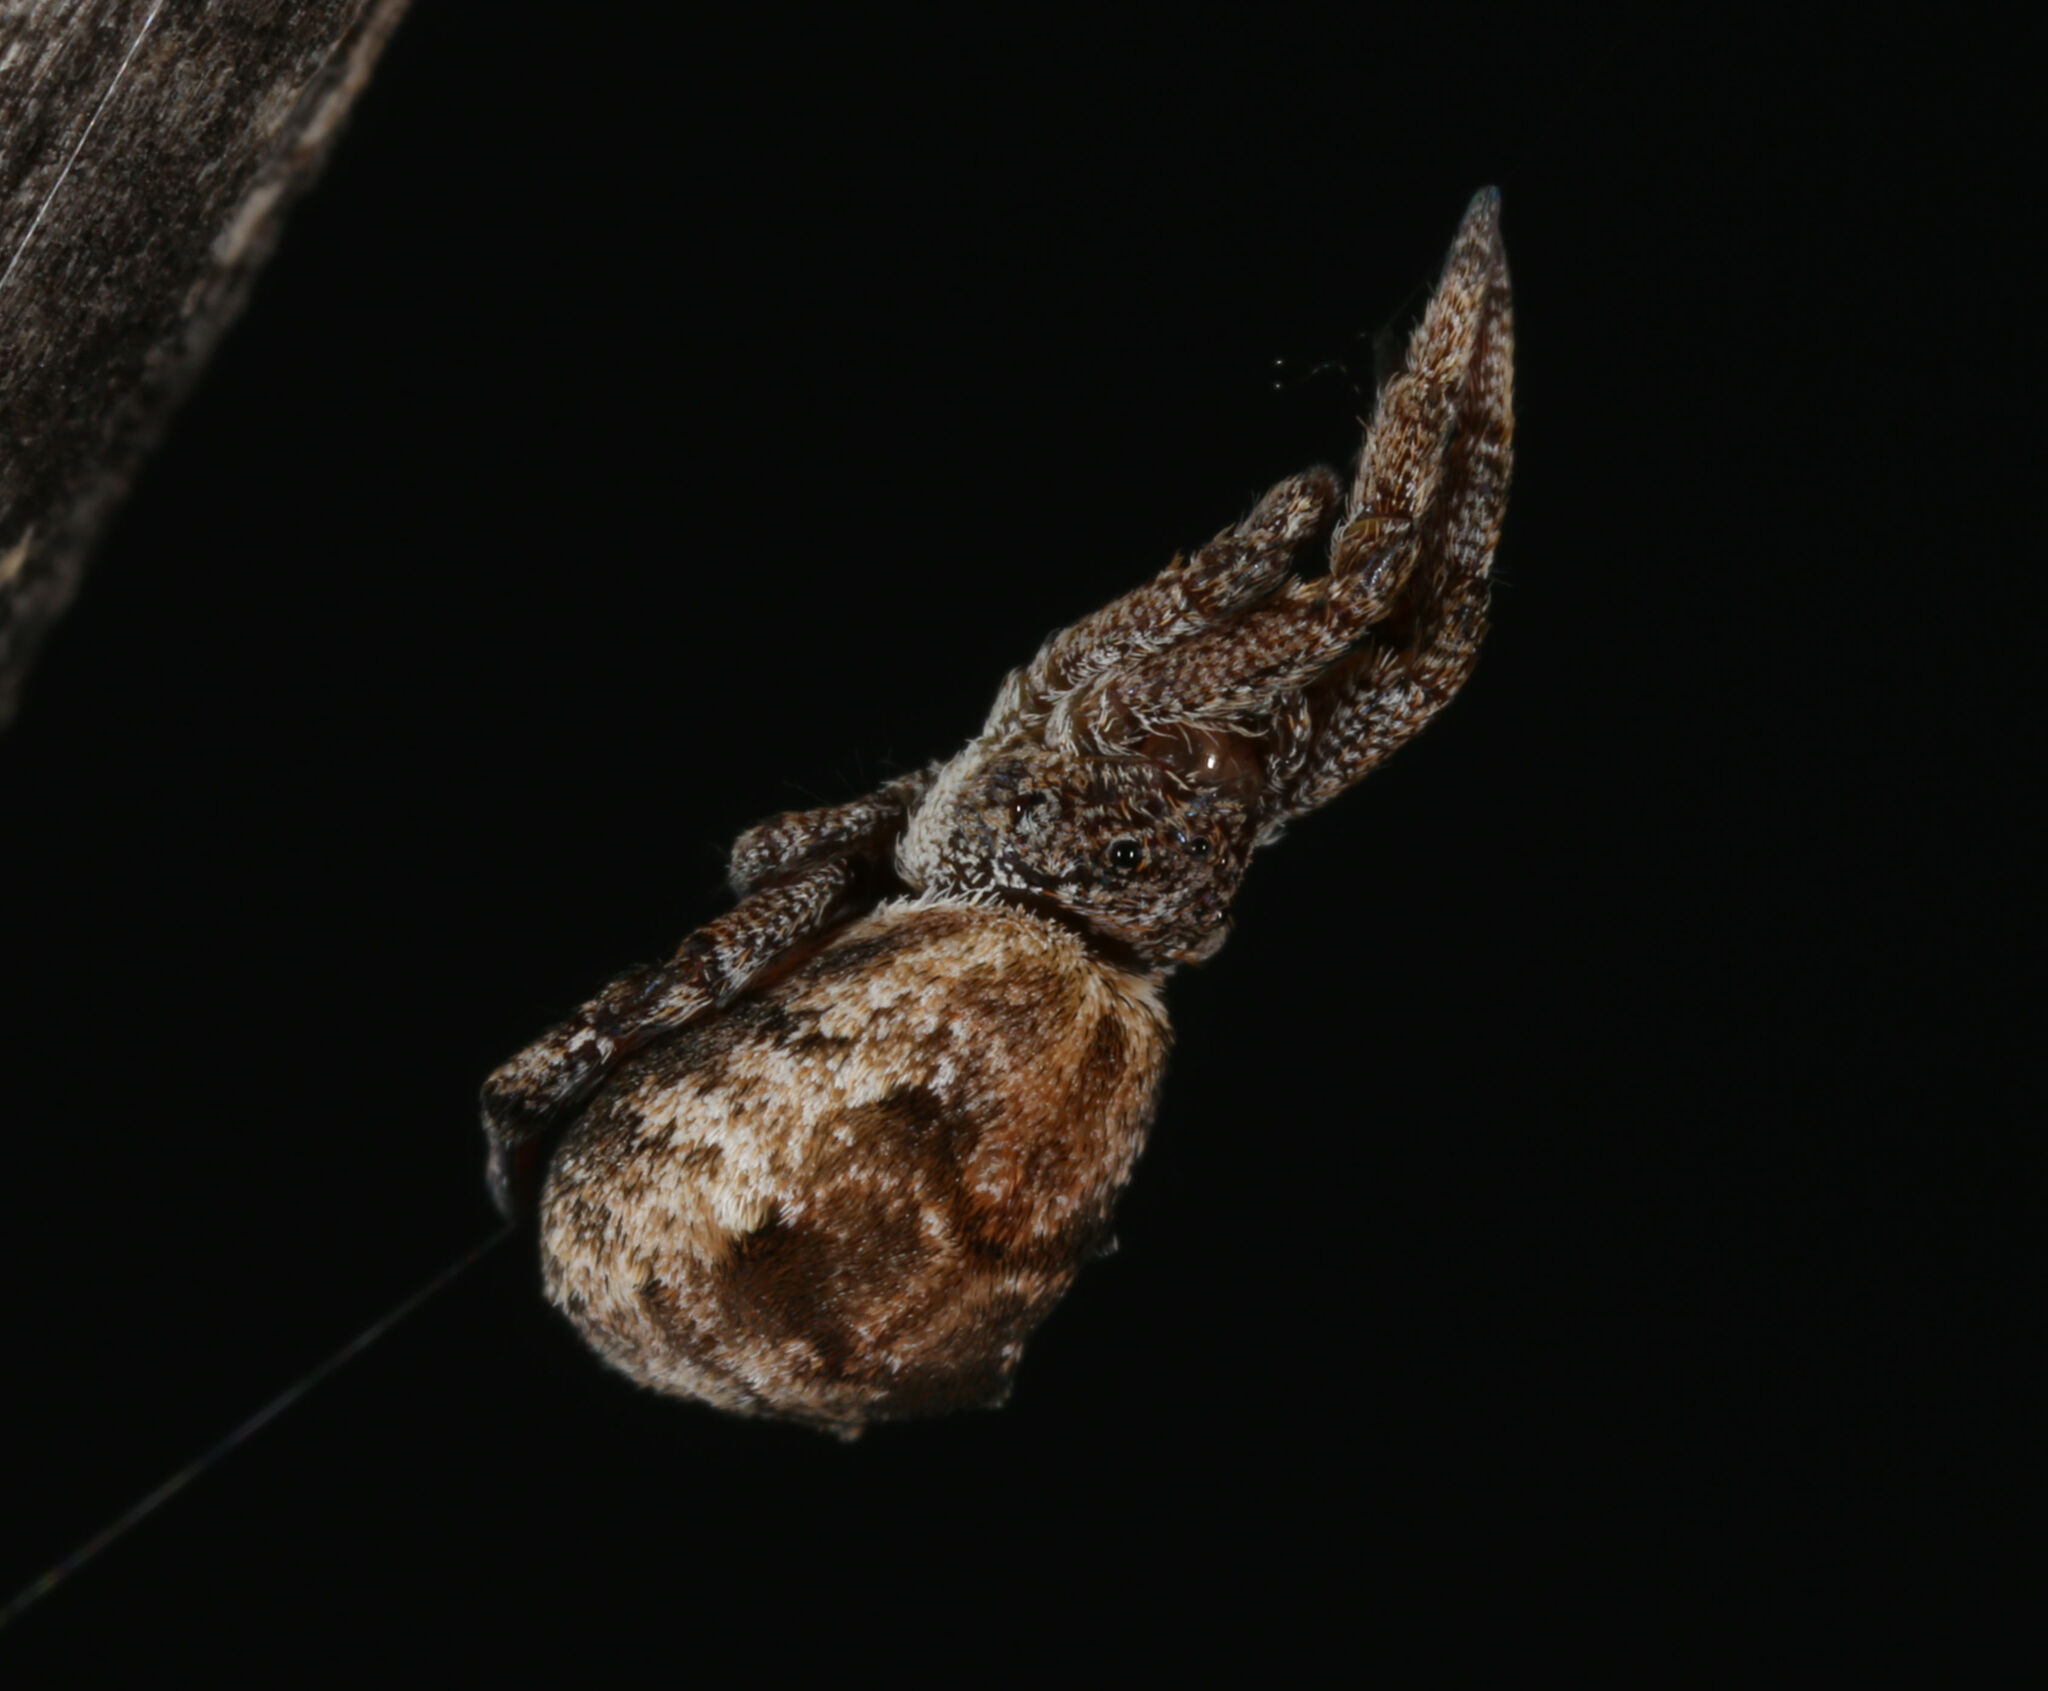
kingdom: Animalia
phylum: Arthropoda
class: Arachnida
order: Araneae
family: Uloboridae
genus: Hyptiotes
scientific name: Hyptiotes puebla
